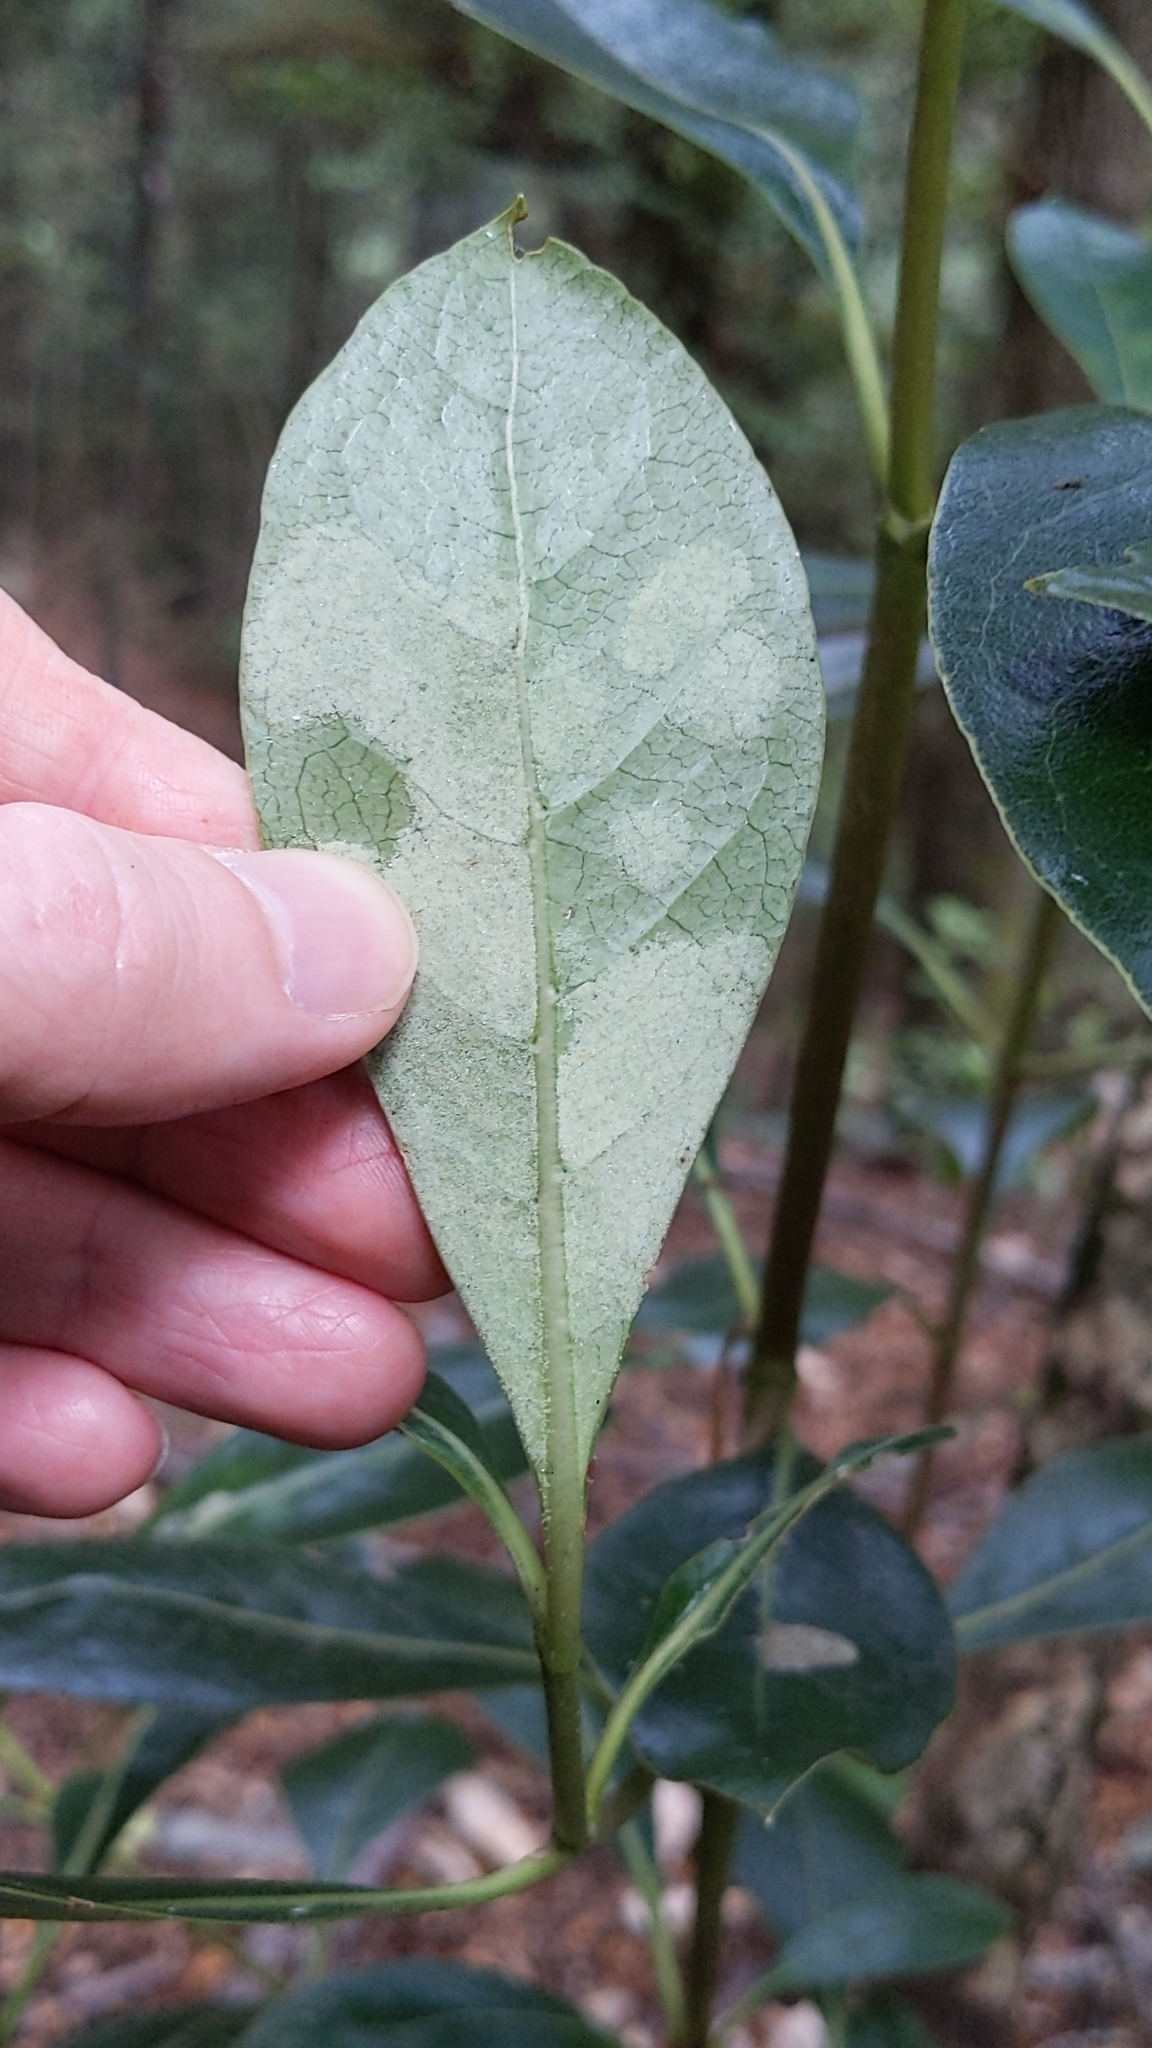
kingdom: Plantae
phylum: Tracheophyta
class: Magnoliopsida
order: Gentianales
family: Rubiaceae
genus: Coprosma
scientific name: Coprosma lucida
